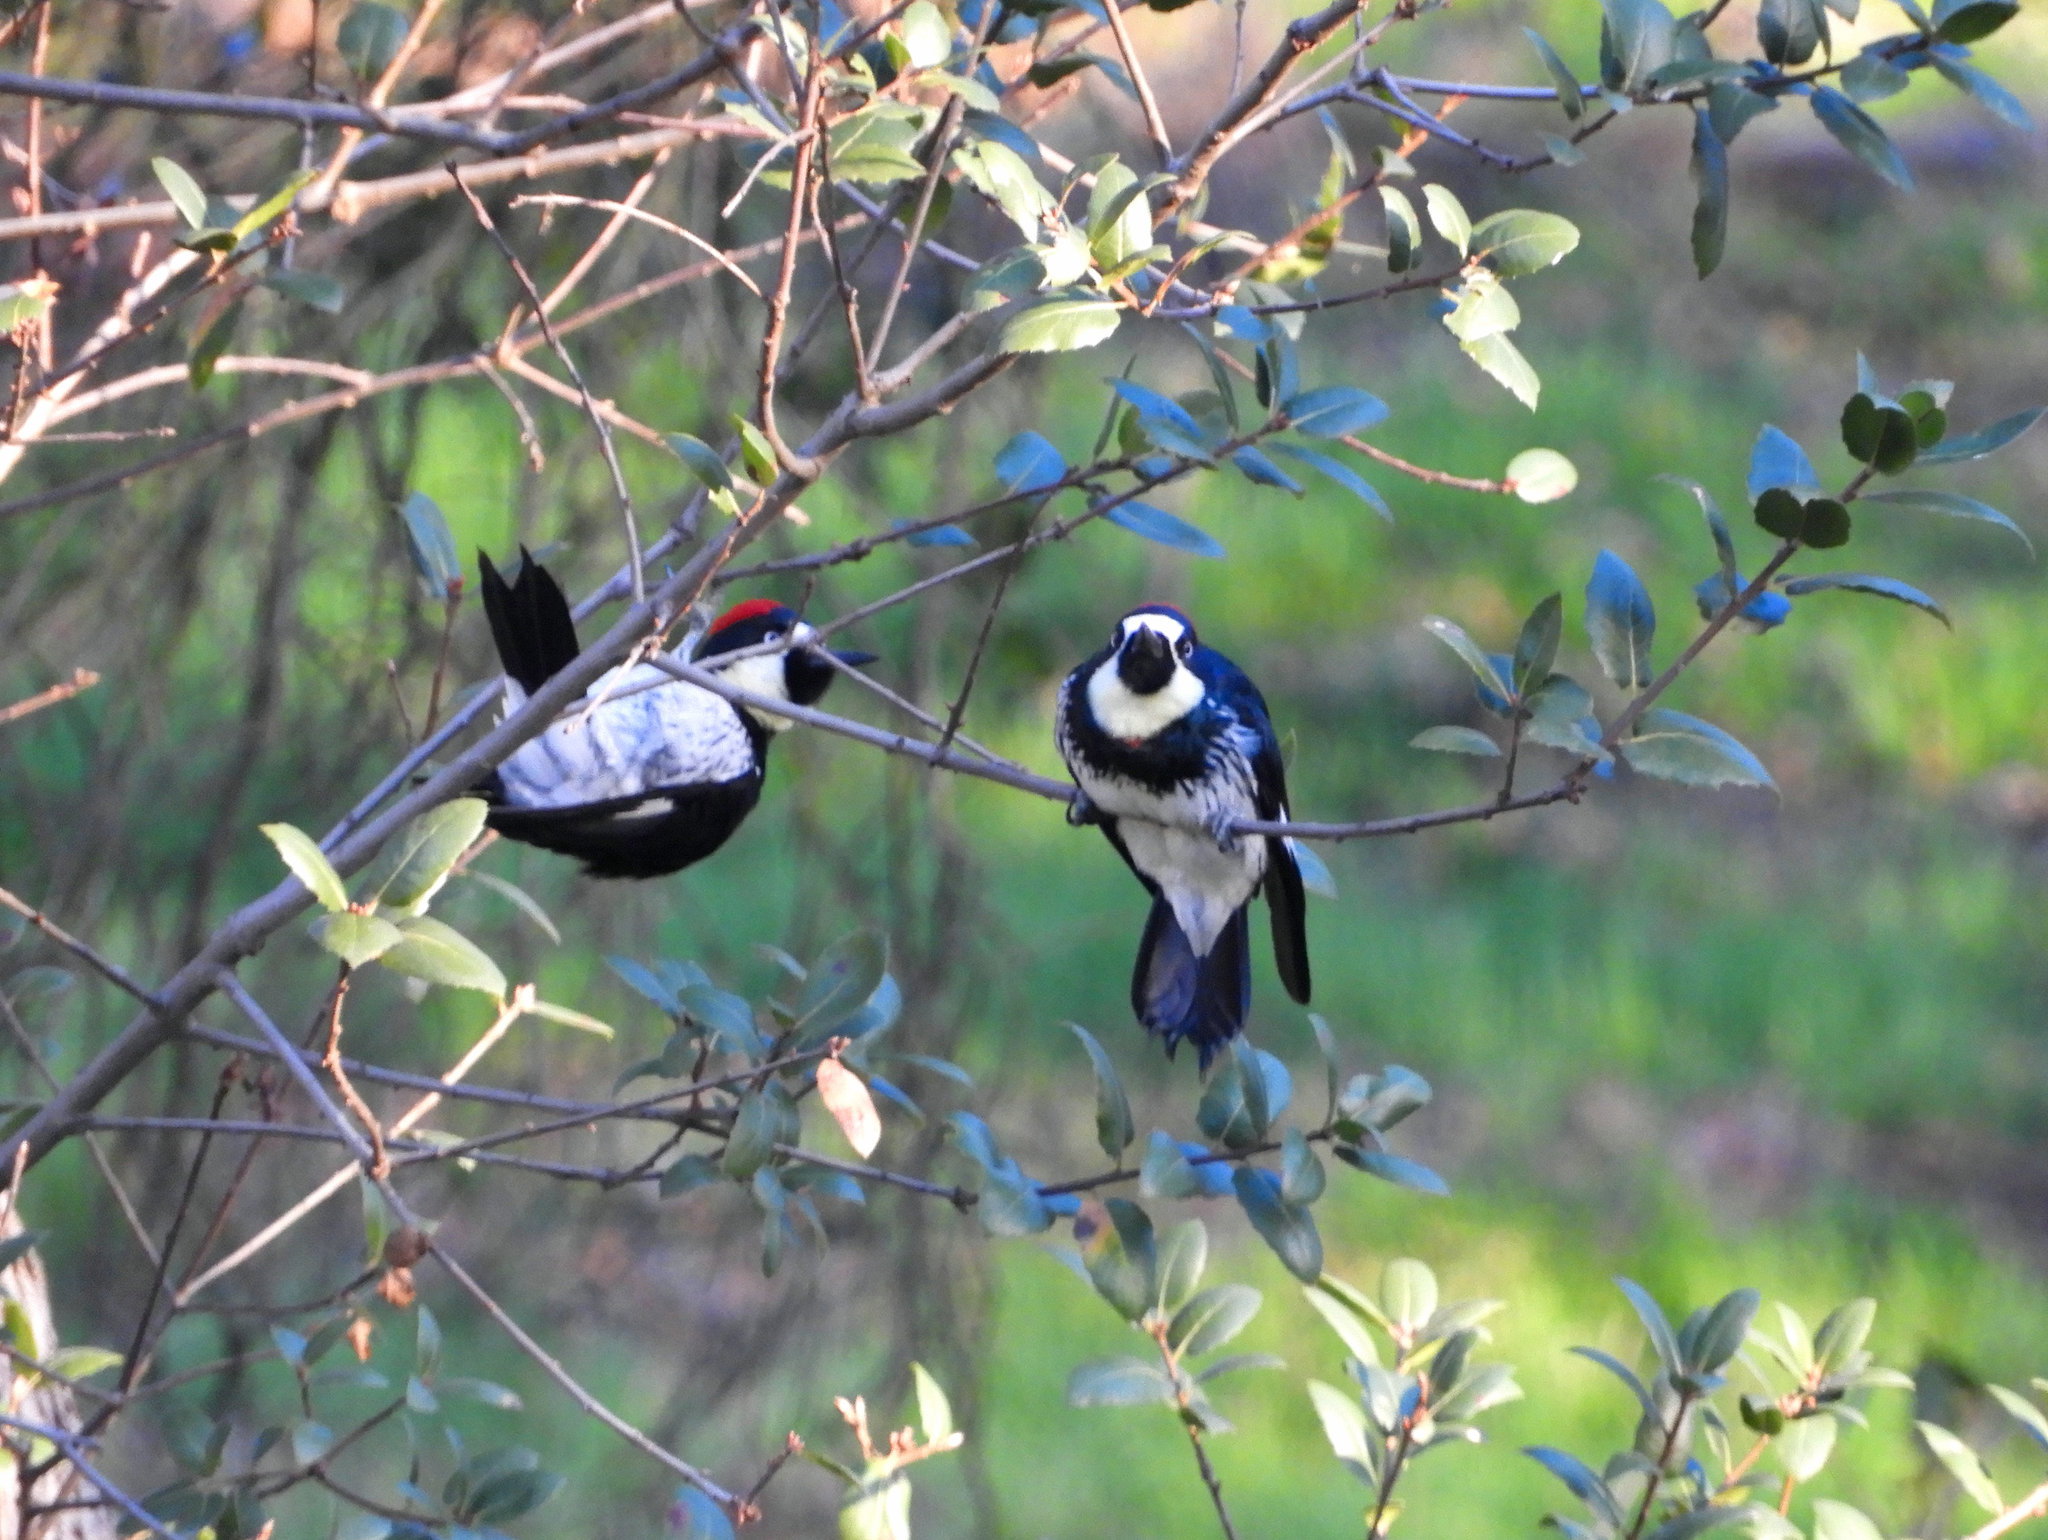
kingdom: Animalia
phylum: Chordata
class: Aves
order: Piciformes
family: Picidae
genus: Melanerpes
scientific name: Melanerpes formicivorus
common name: Acorn woodpecker
